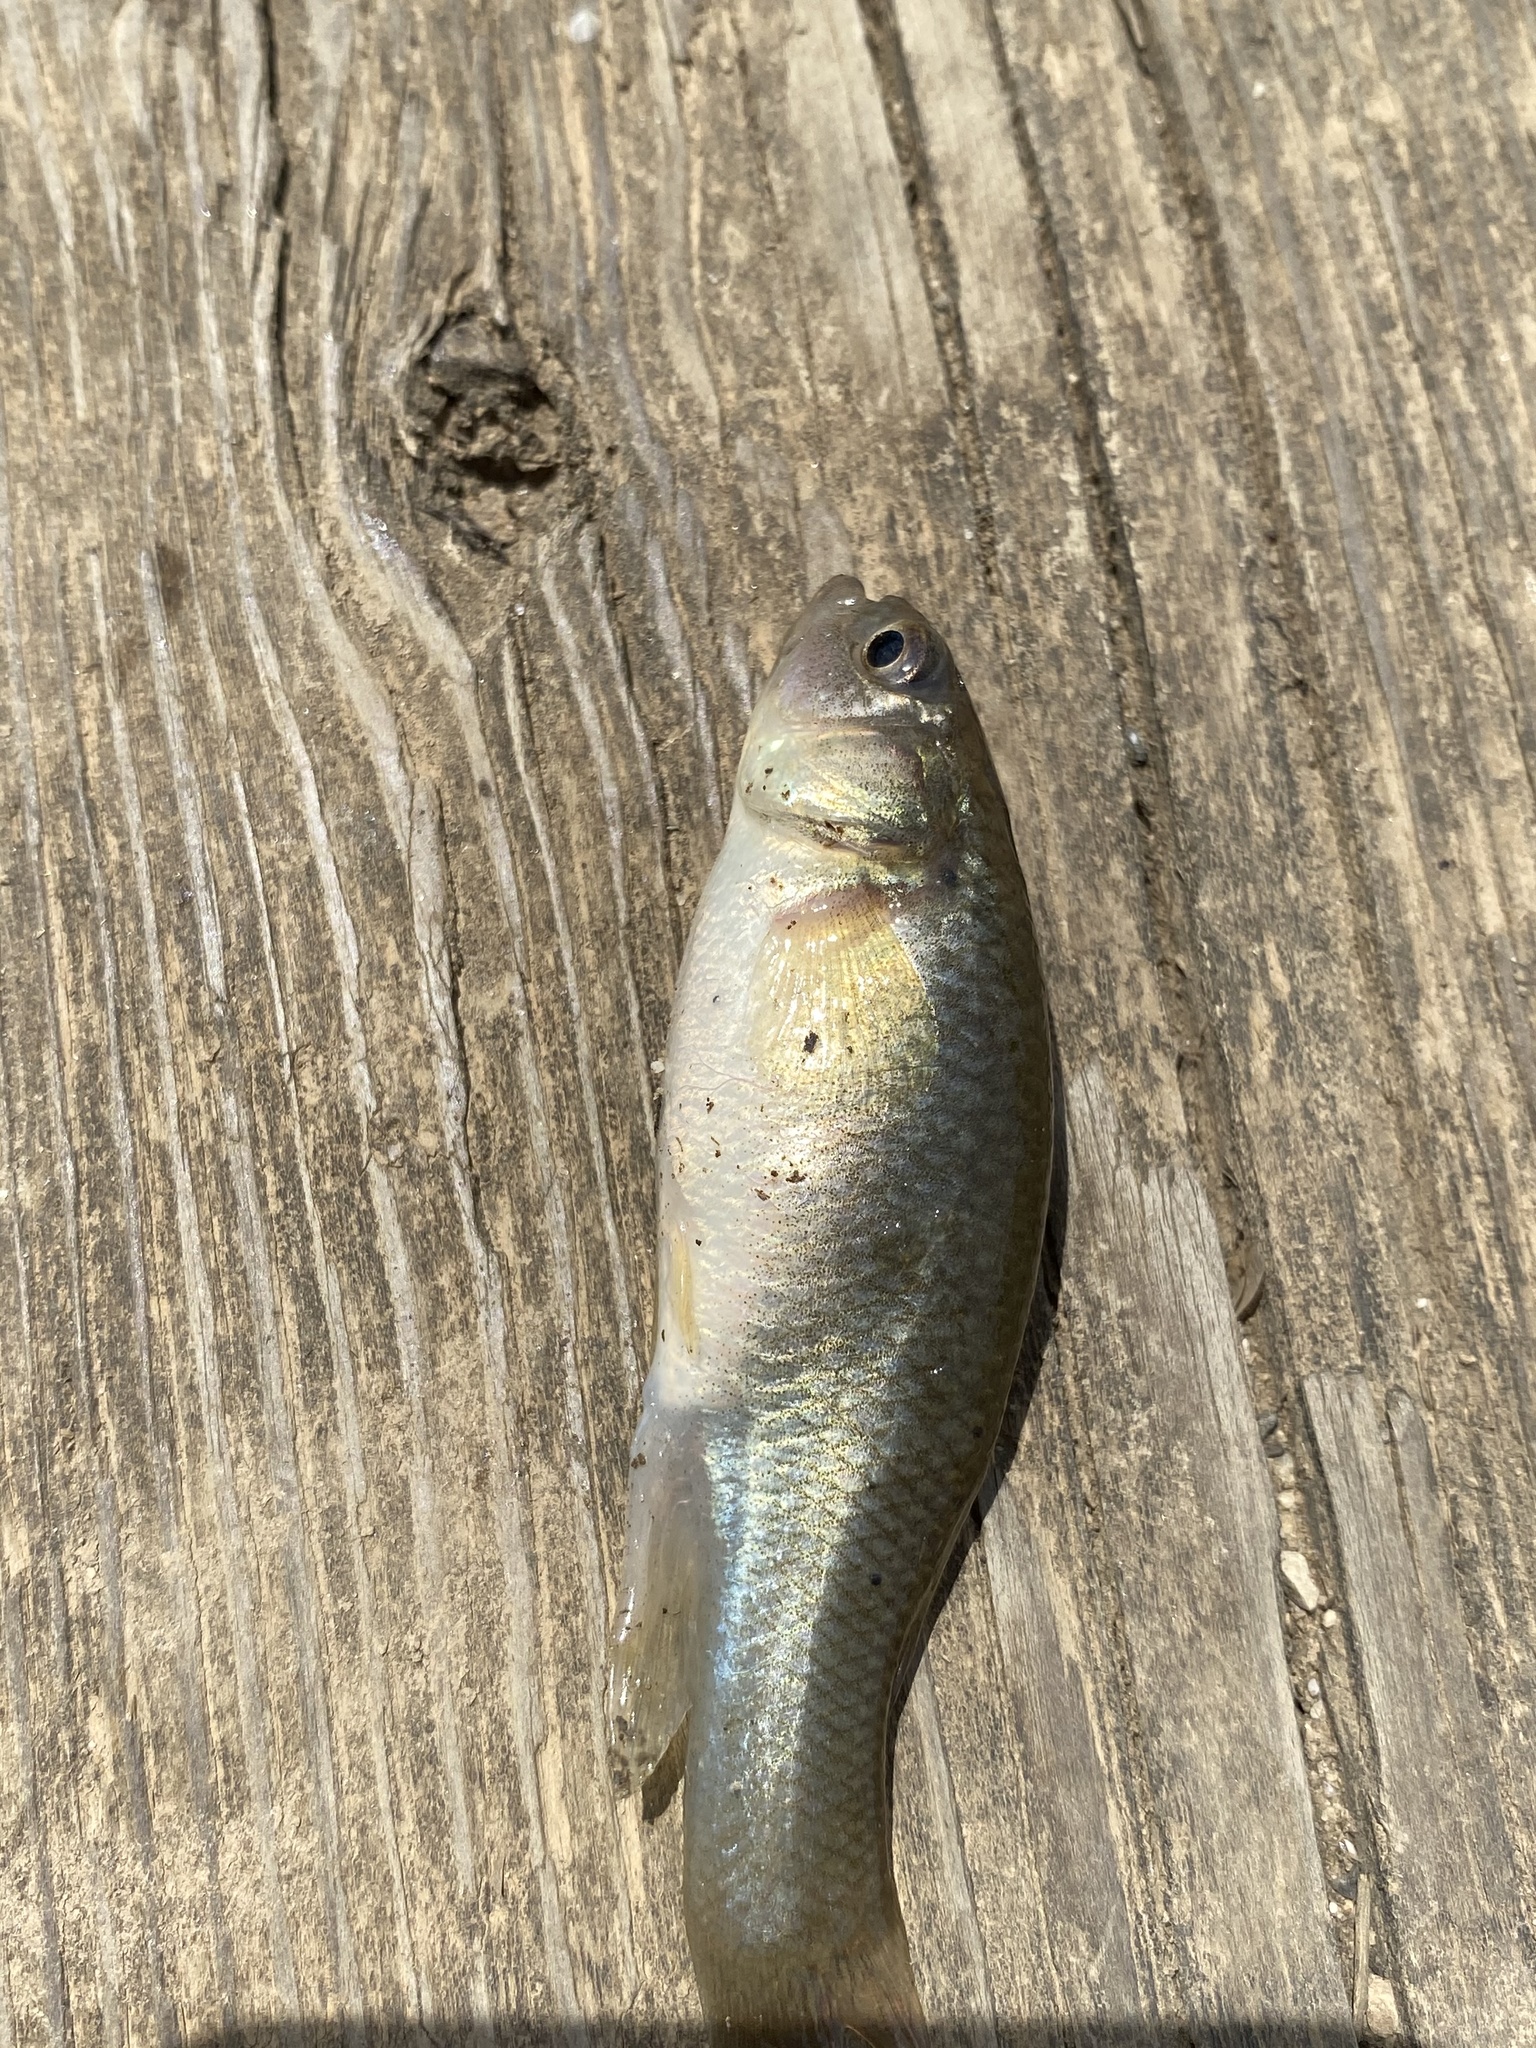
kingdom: Animalia
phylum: Chordata
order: Cyprinodontiformes
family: Fundulidae
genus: Fundulus
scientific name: Fundulus heteroclitus
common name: Mummichog
